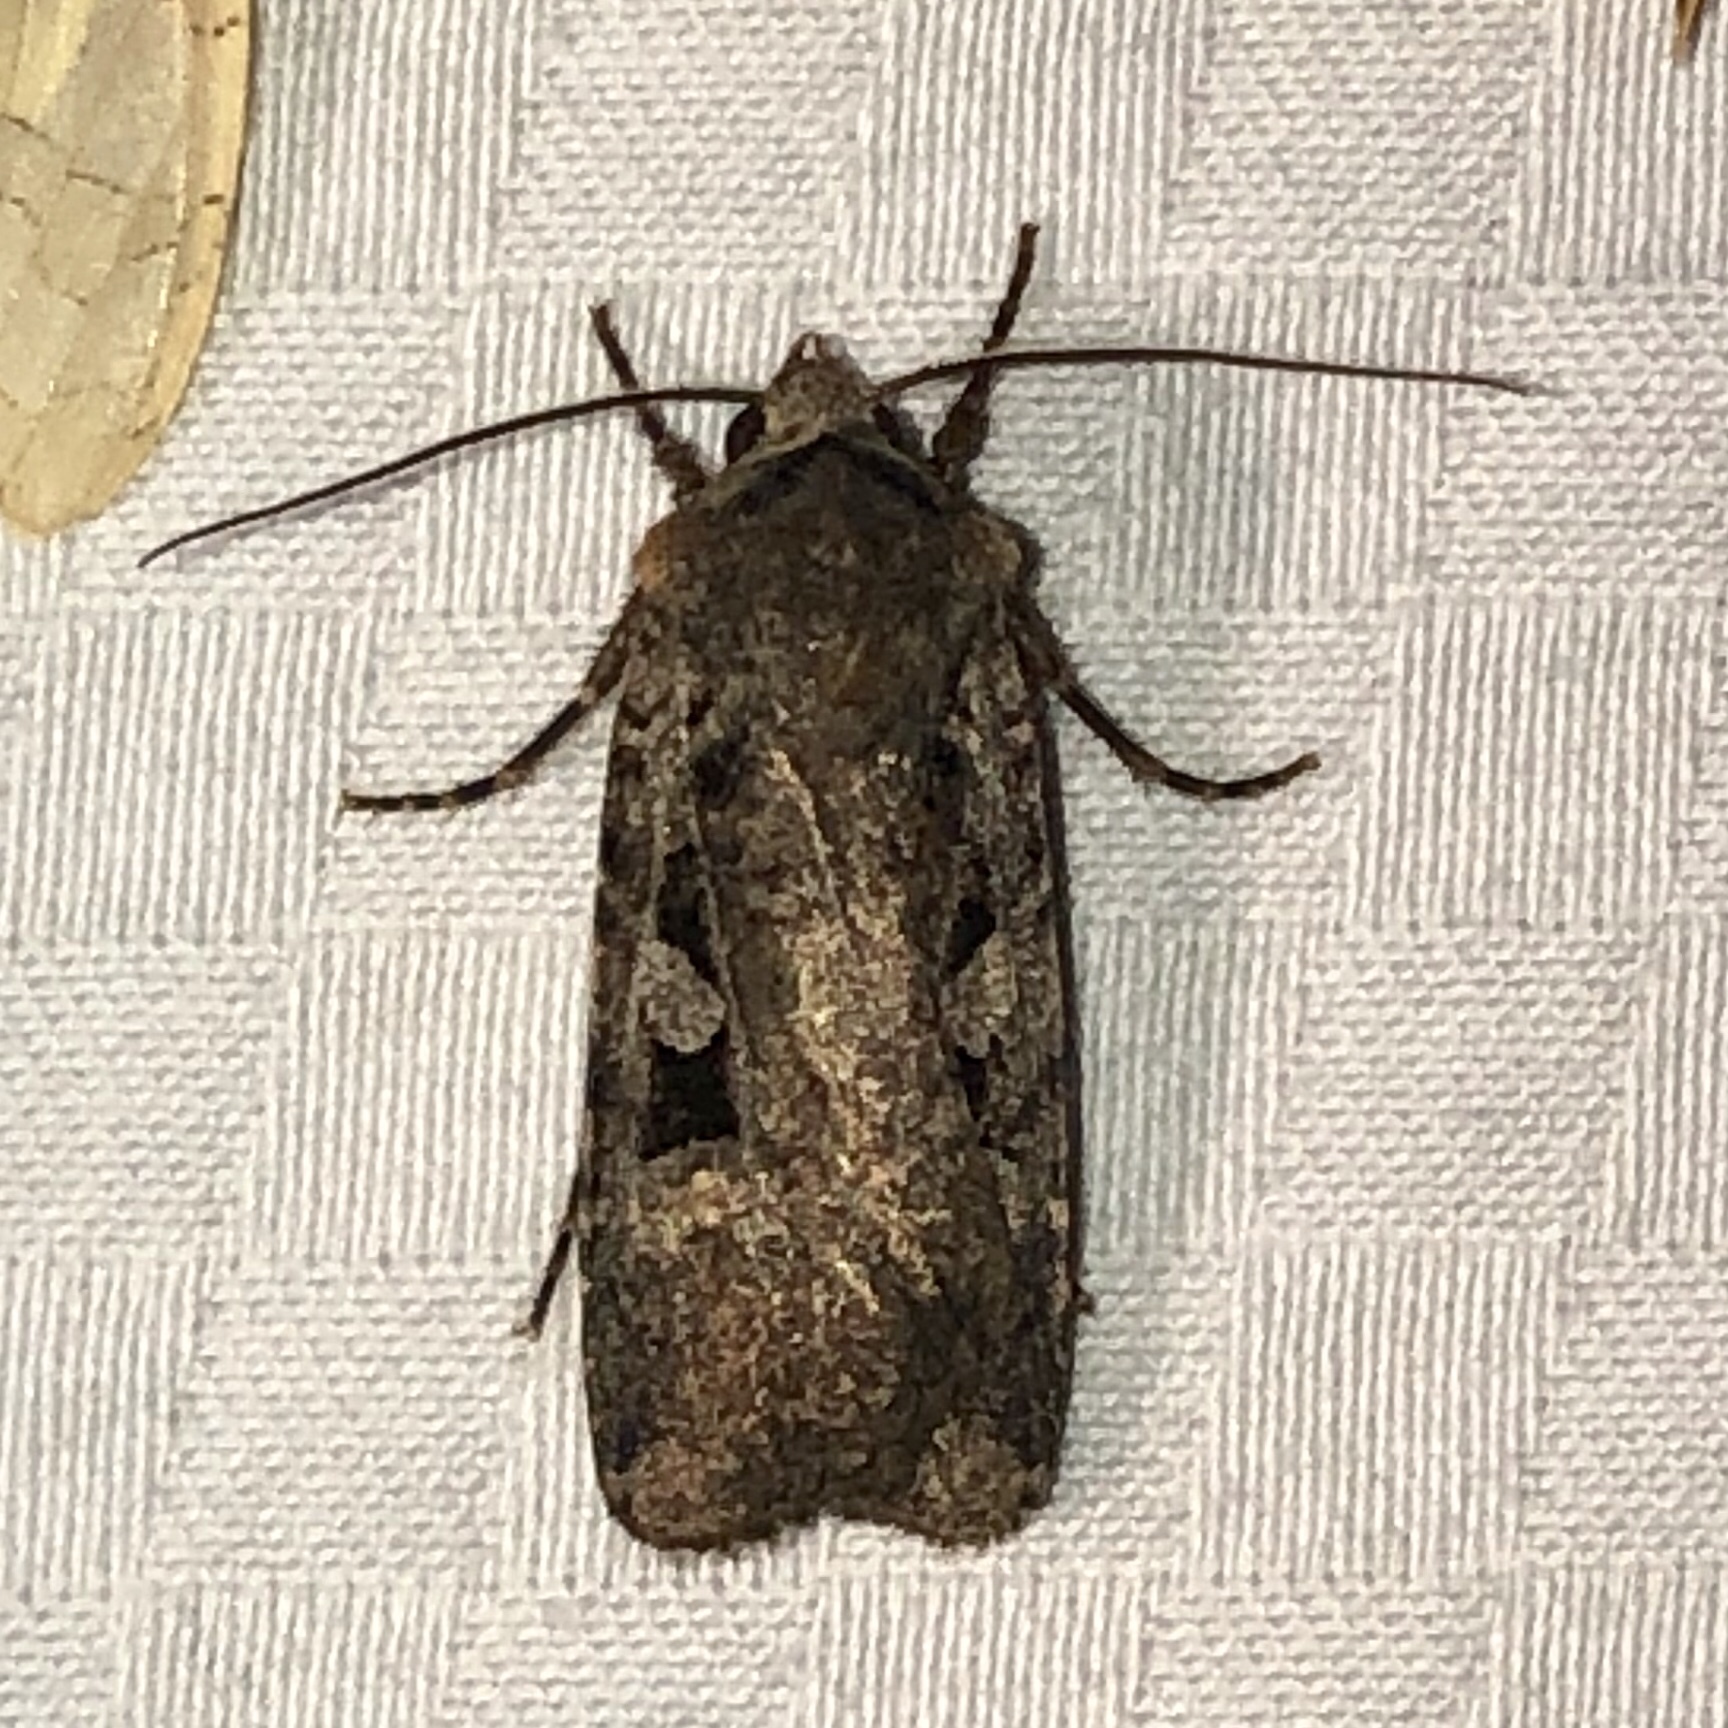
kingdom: Animalia
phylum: Arthropoda
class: Insecta
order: Lepidoptera
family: Noctuidae
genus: Euxoa
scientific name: Euxoa tessellata
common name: Striped cutworm
